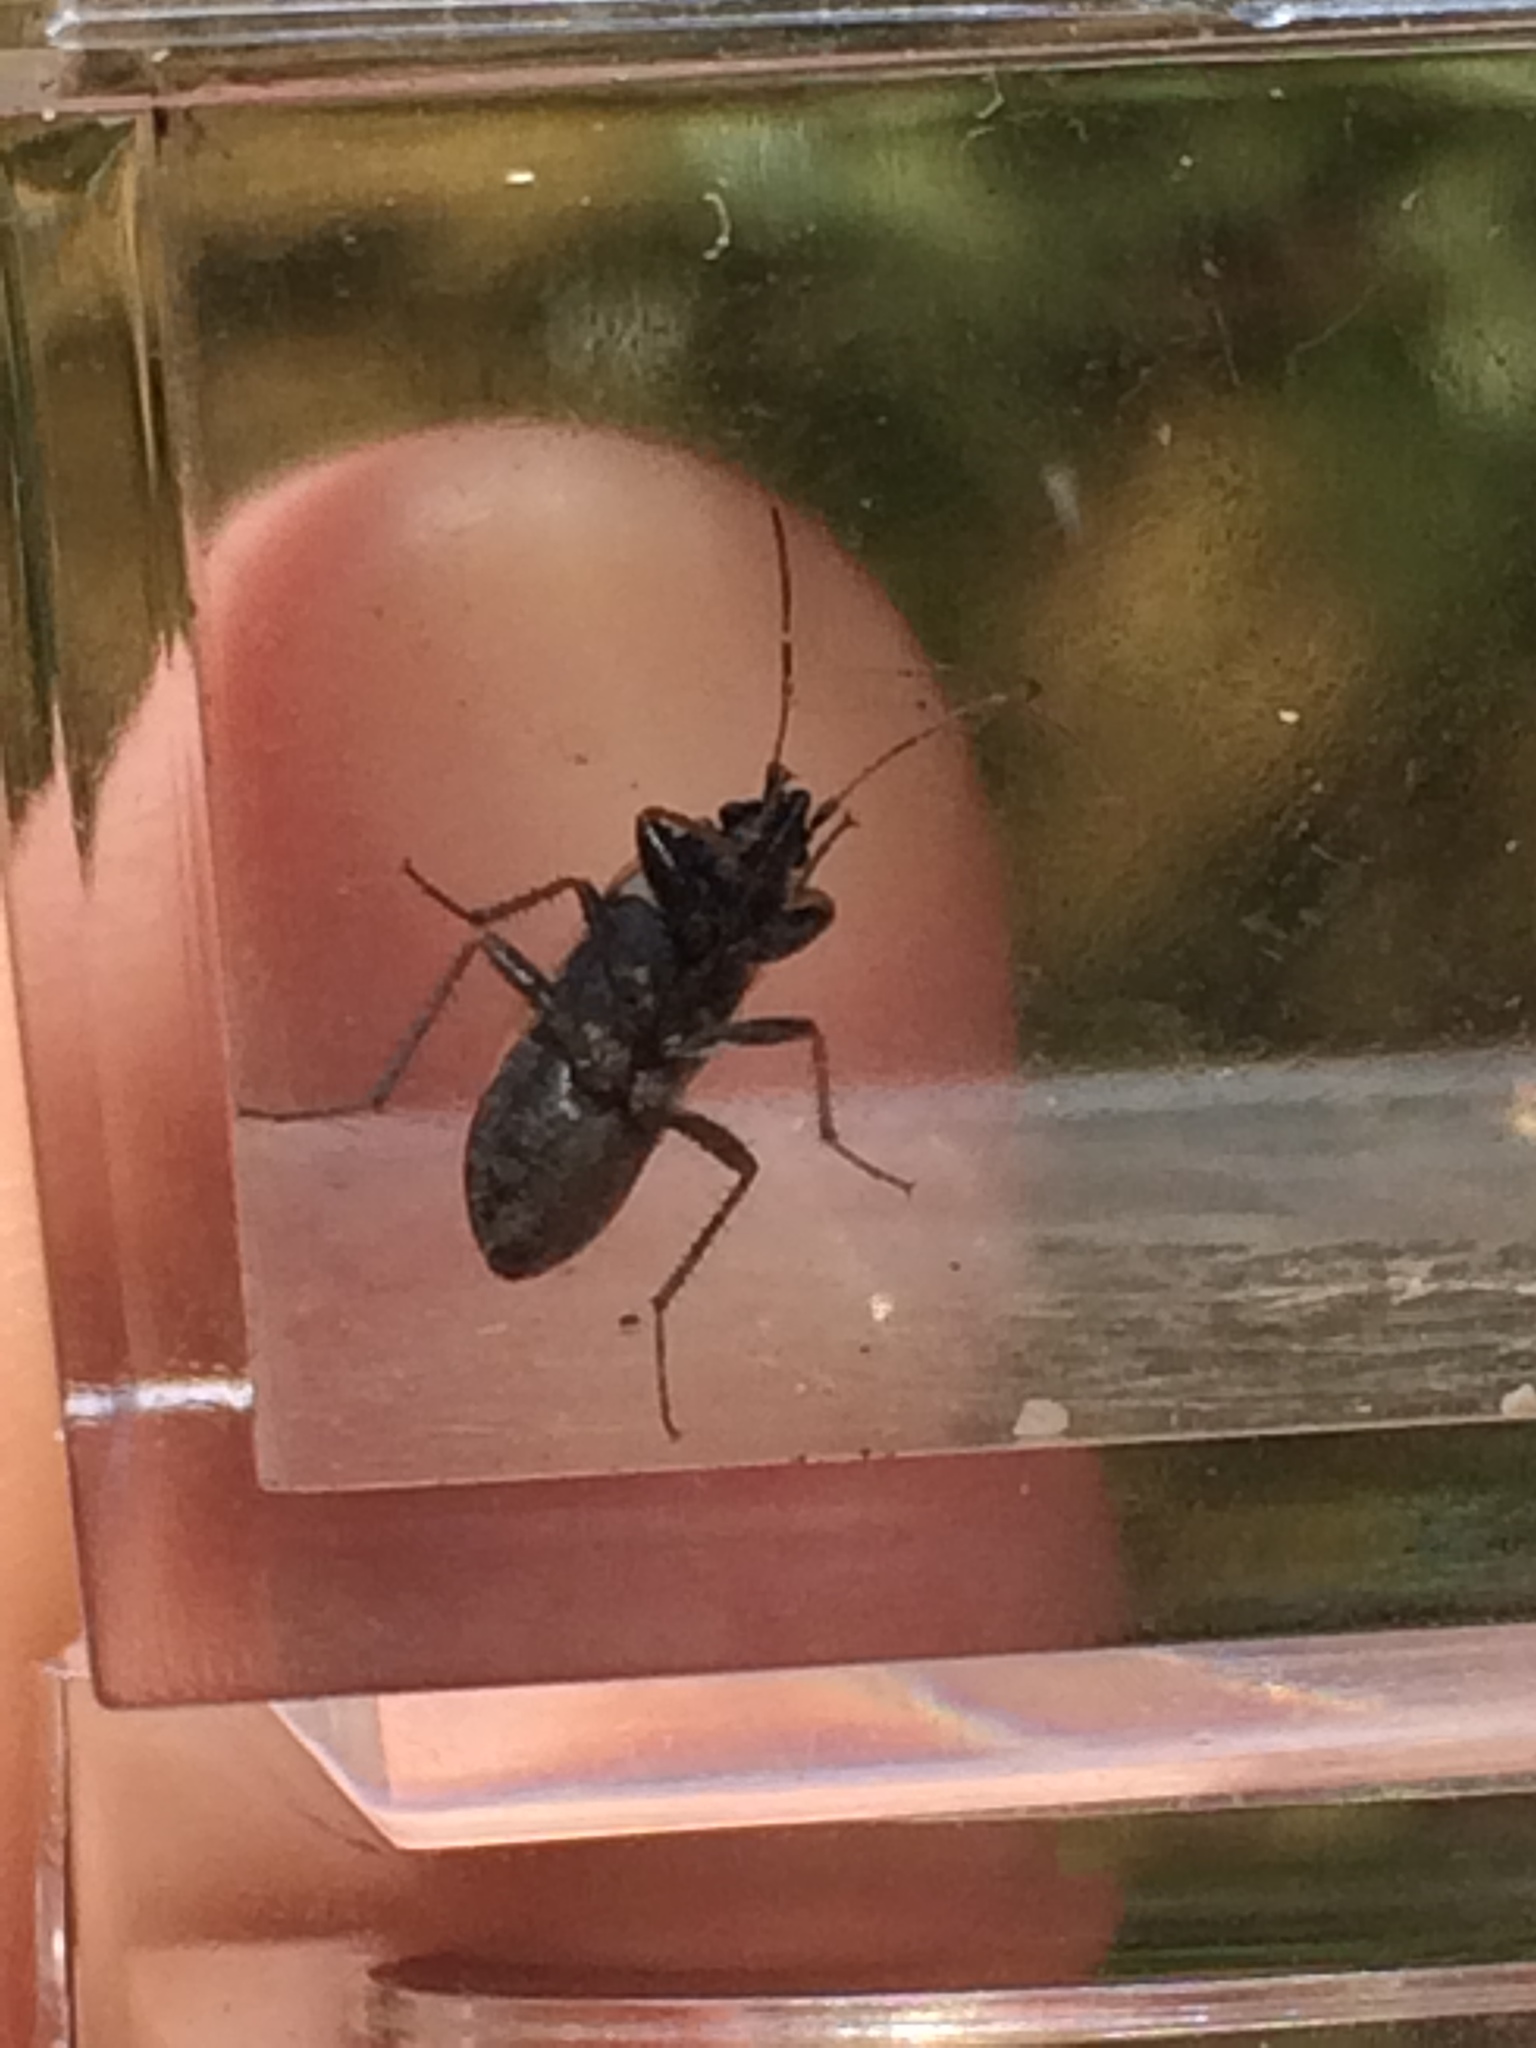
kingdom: Animalia
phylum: Arthropoda
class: Insecta
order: Hemiptera
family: Rhyparochromidae
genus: Xanthochilus
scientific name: Xanthochilus saturnius
